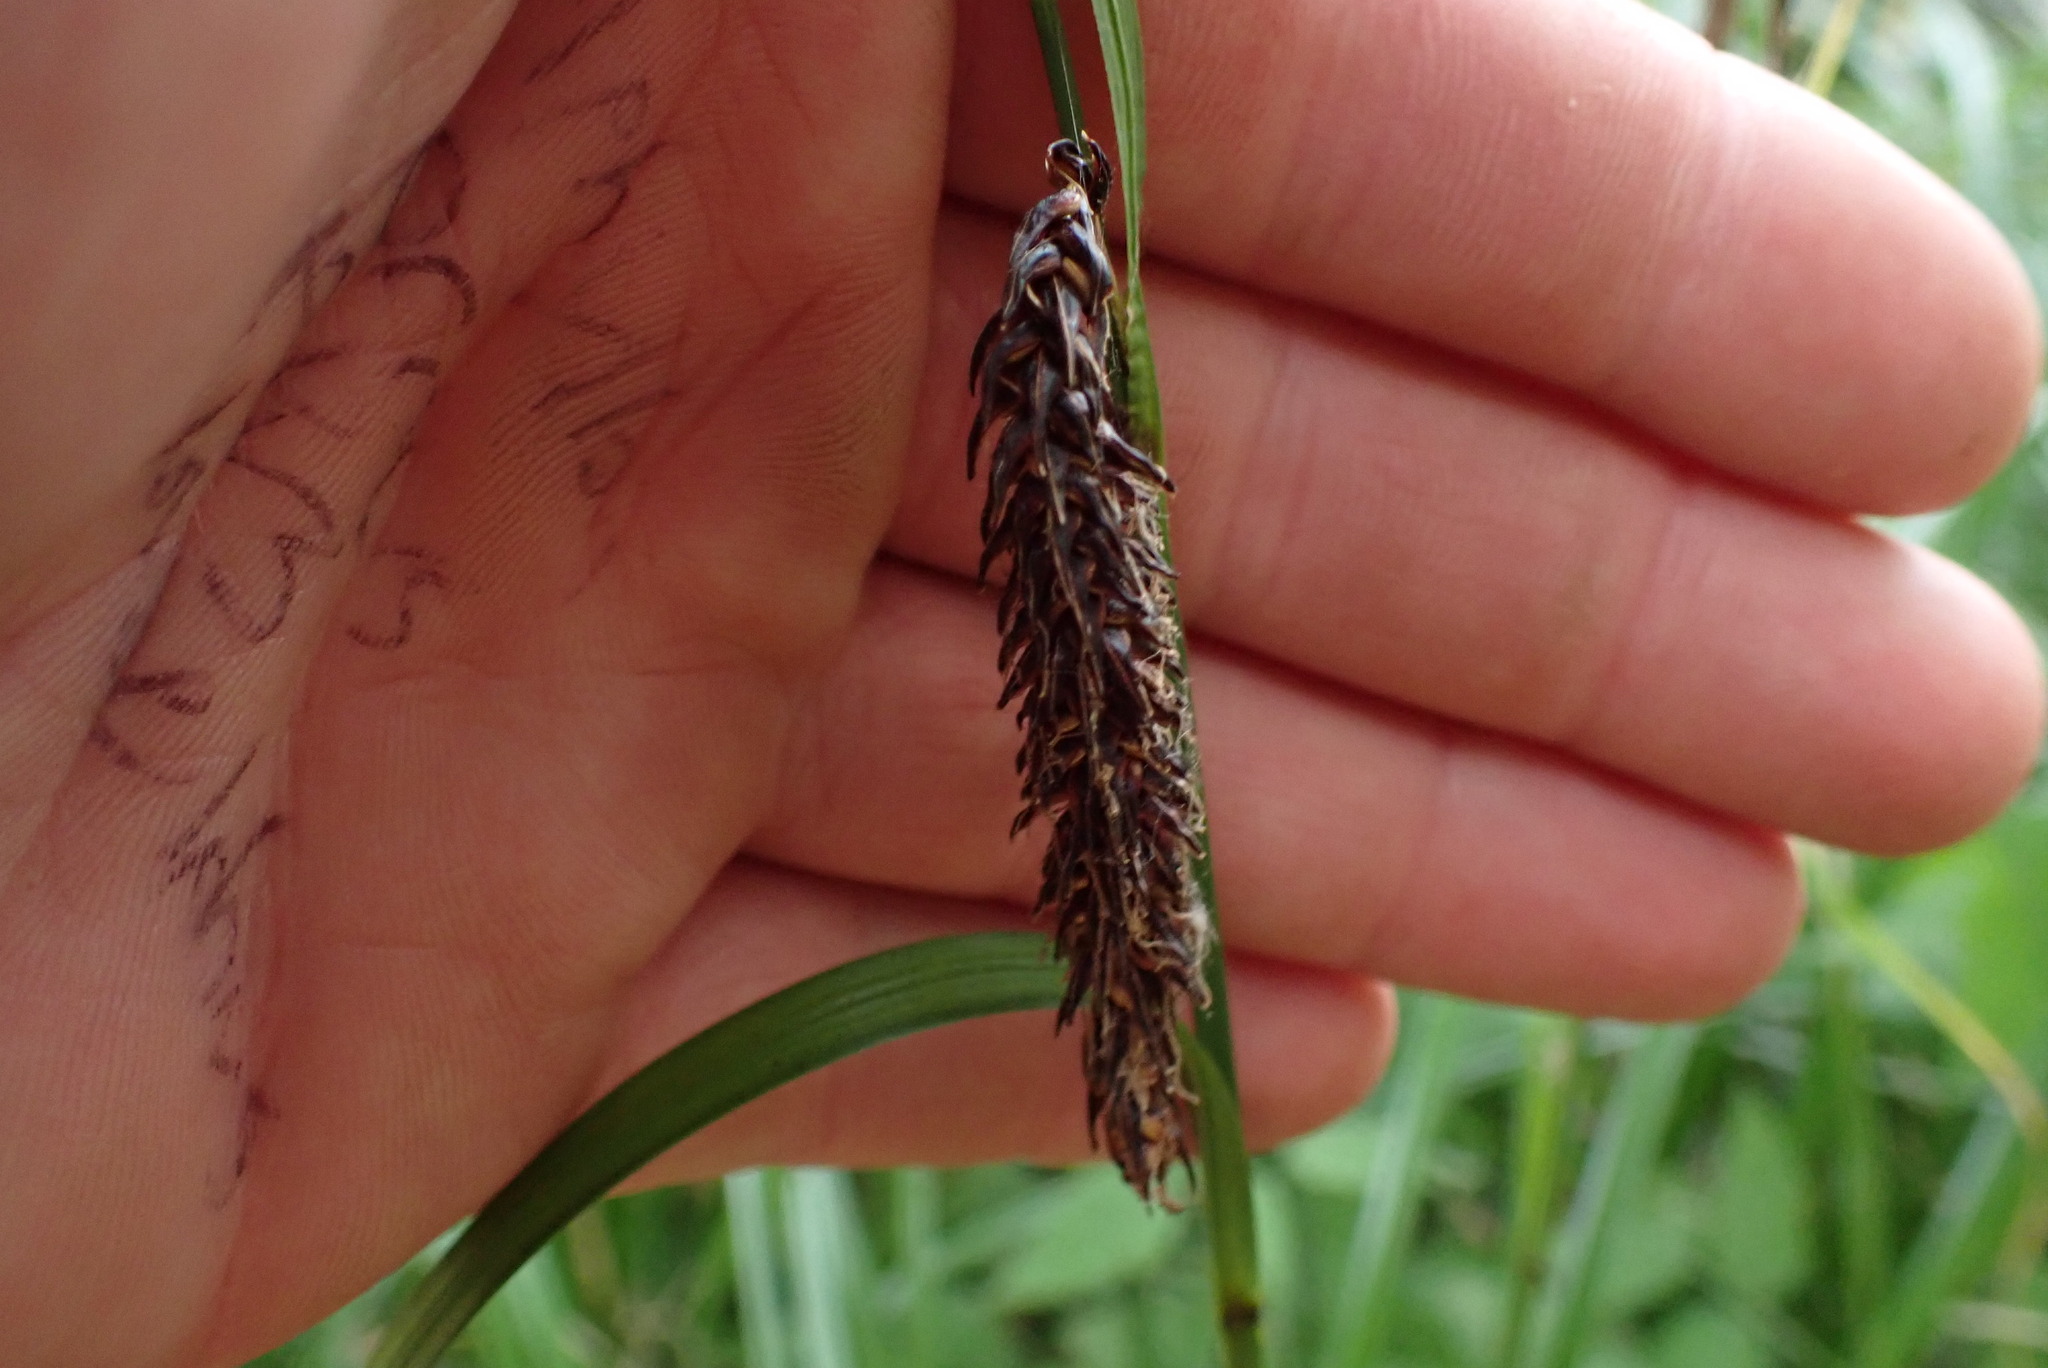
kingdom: Plantae
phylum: Tracheophyta
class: Liliopsida
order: Poales
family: Cyperaceae
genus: Carex
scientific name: Carex obnupta
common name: Slough sedge
